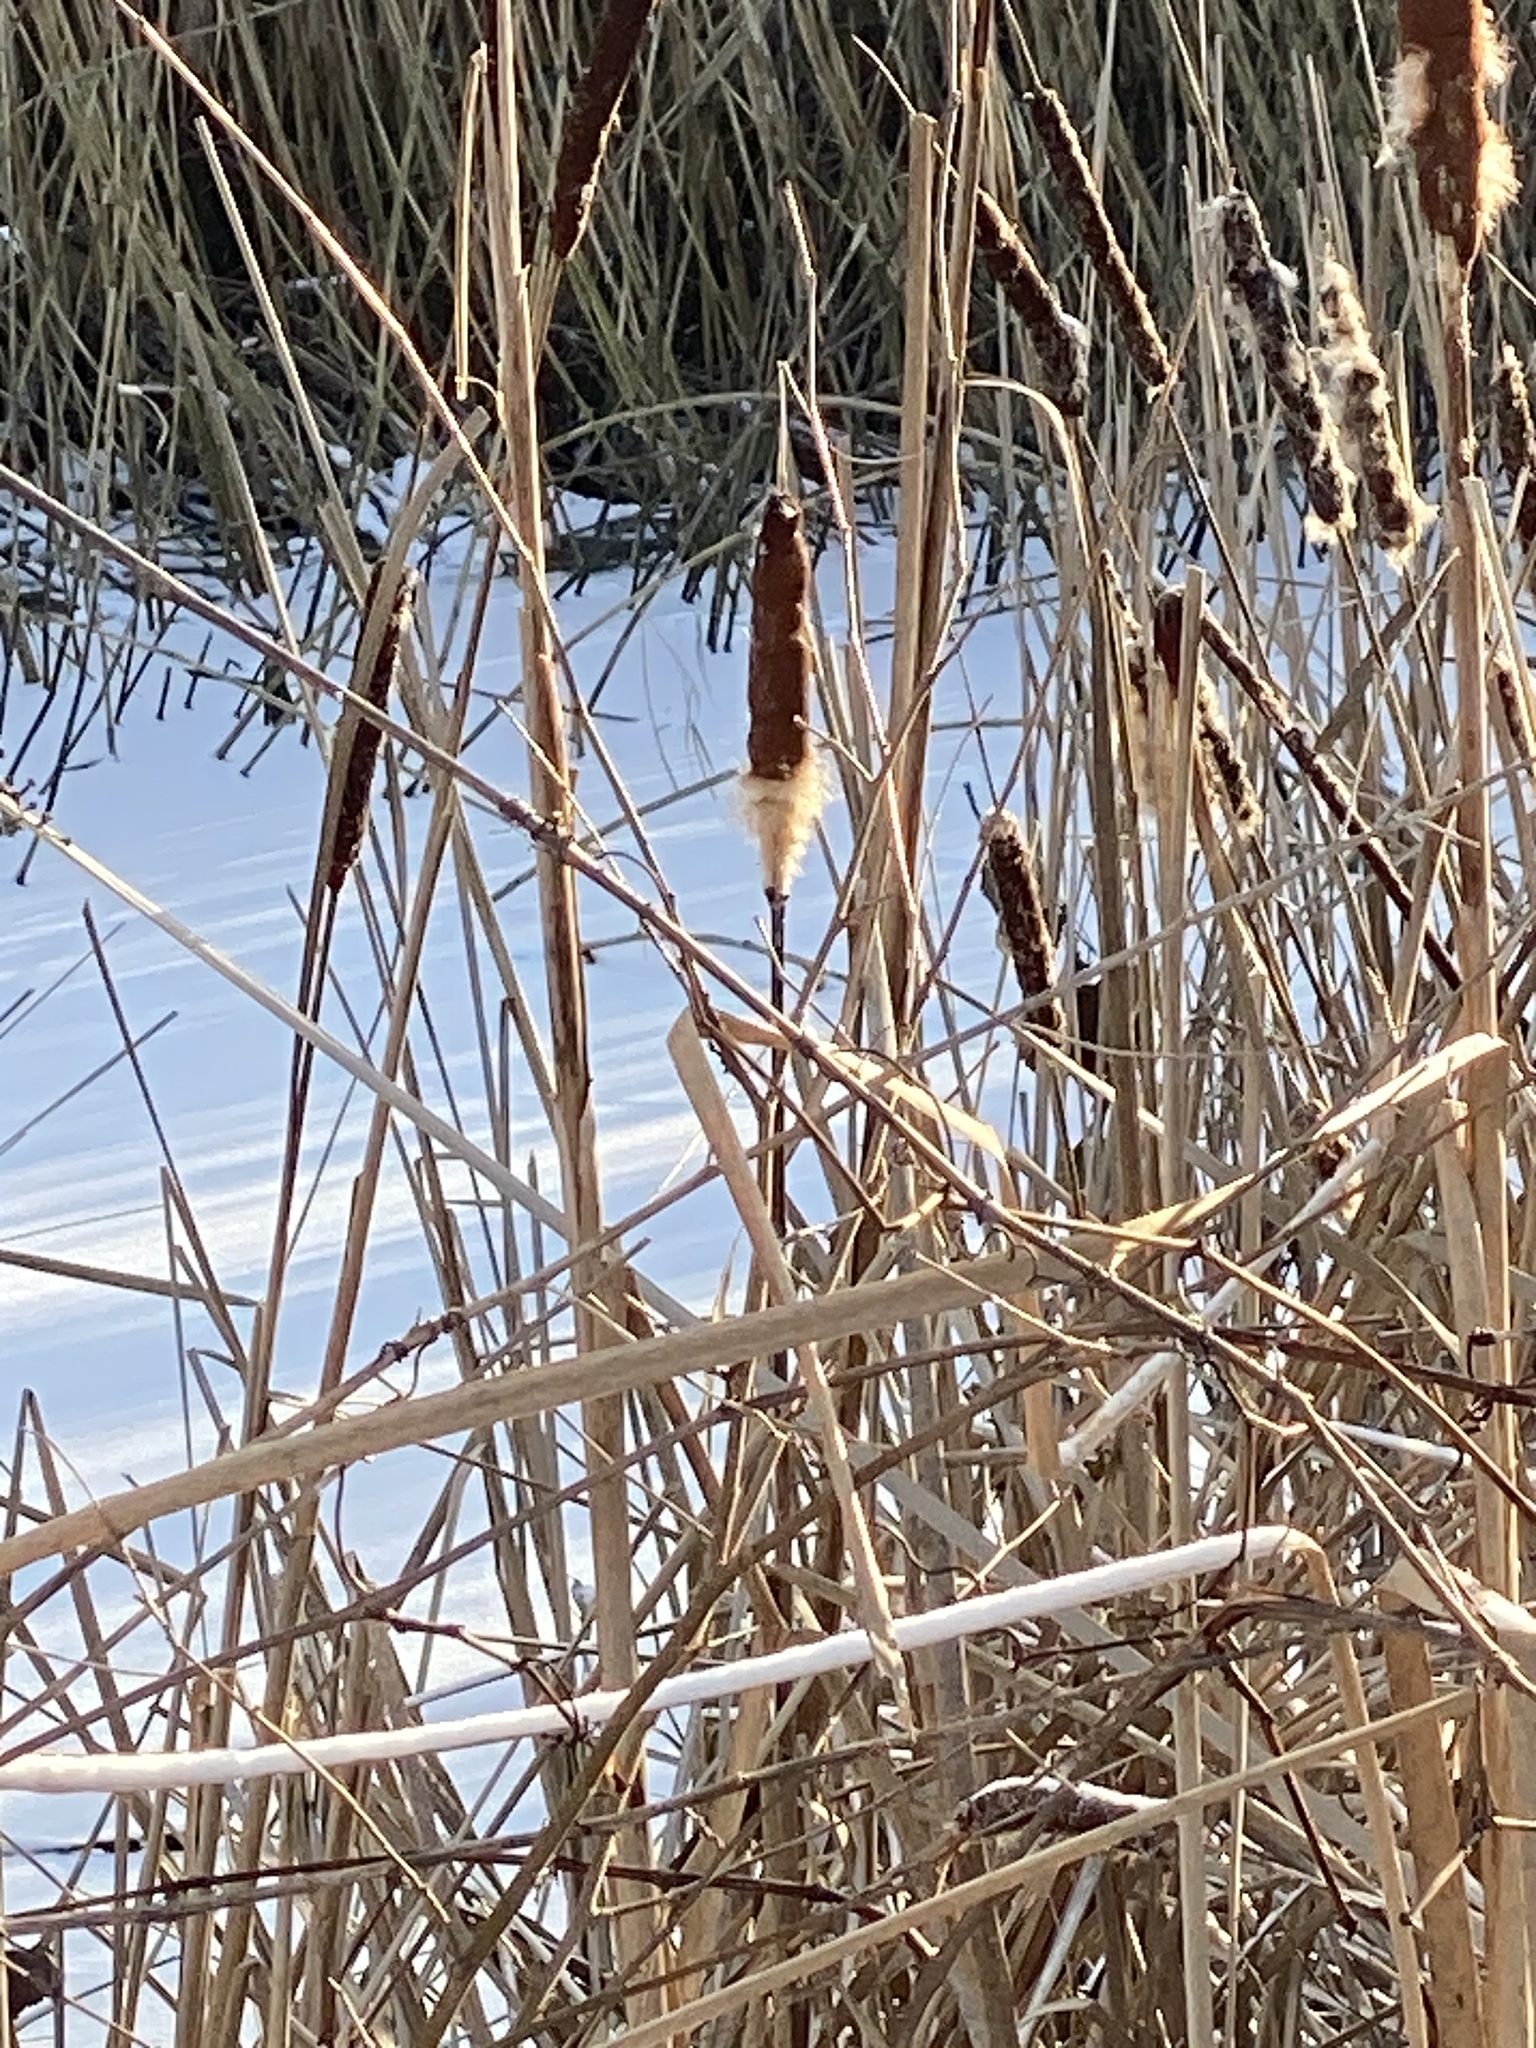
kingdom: Plantae
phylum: Tracheophyta
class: Liliopsida
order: Poales
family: Typhaceae
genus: Typha
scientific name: Typha
